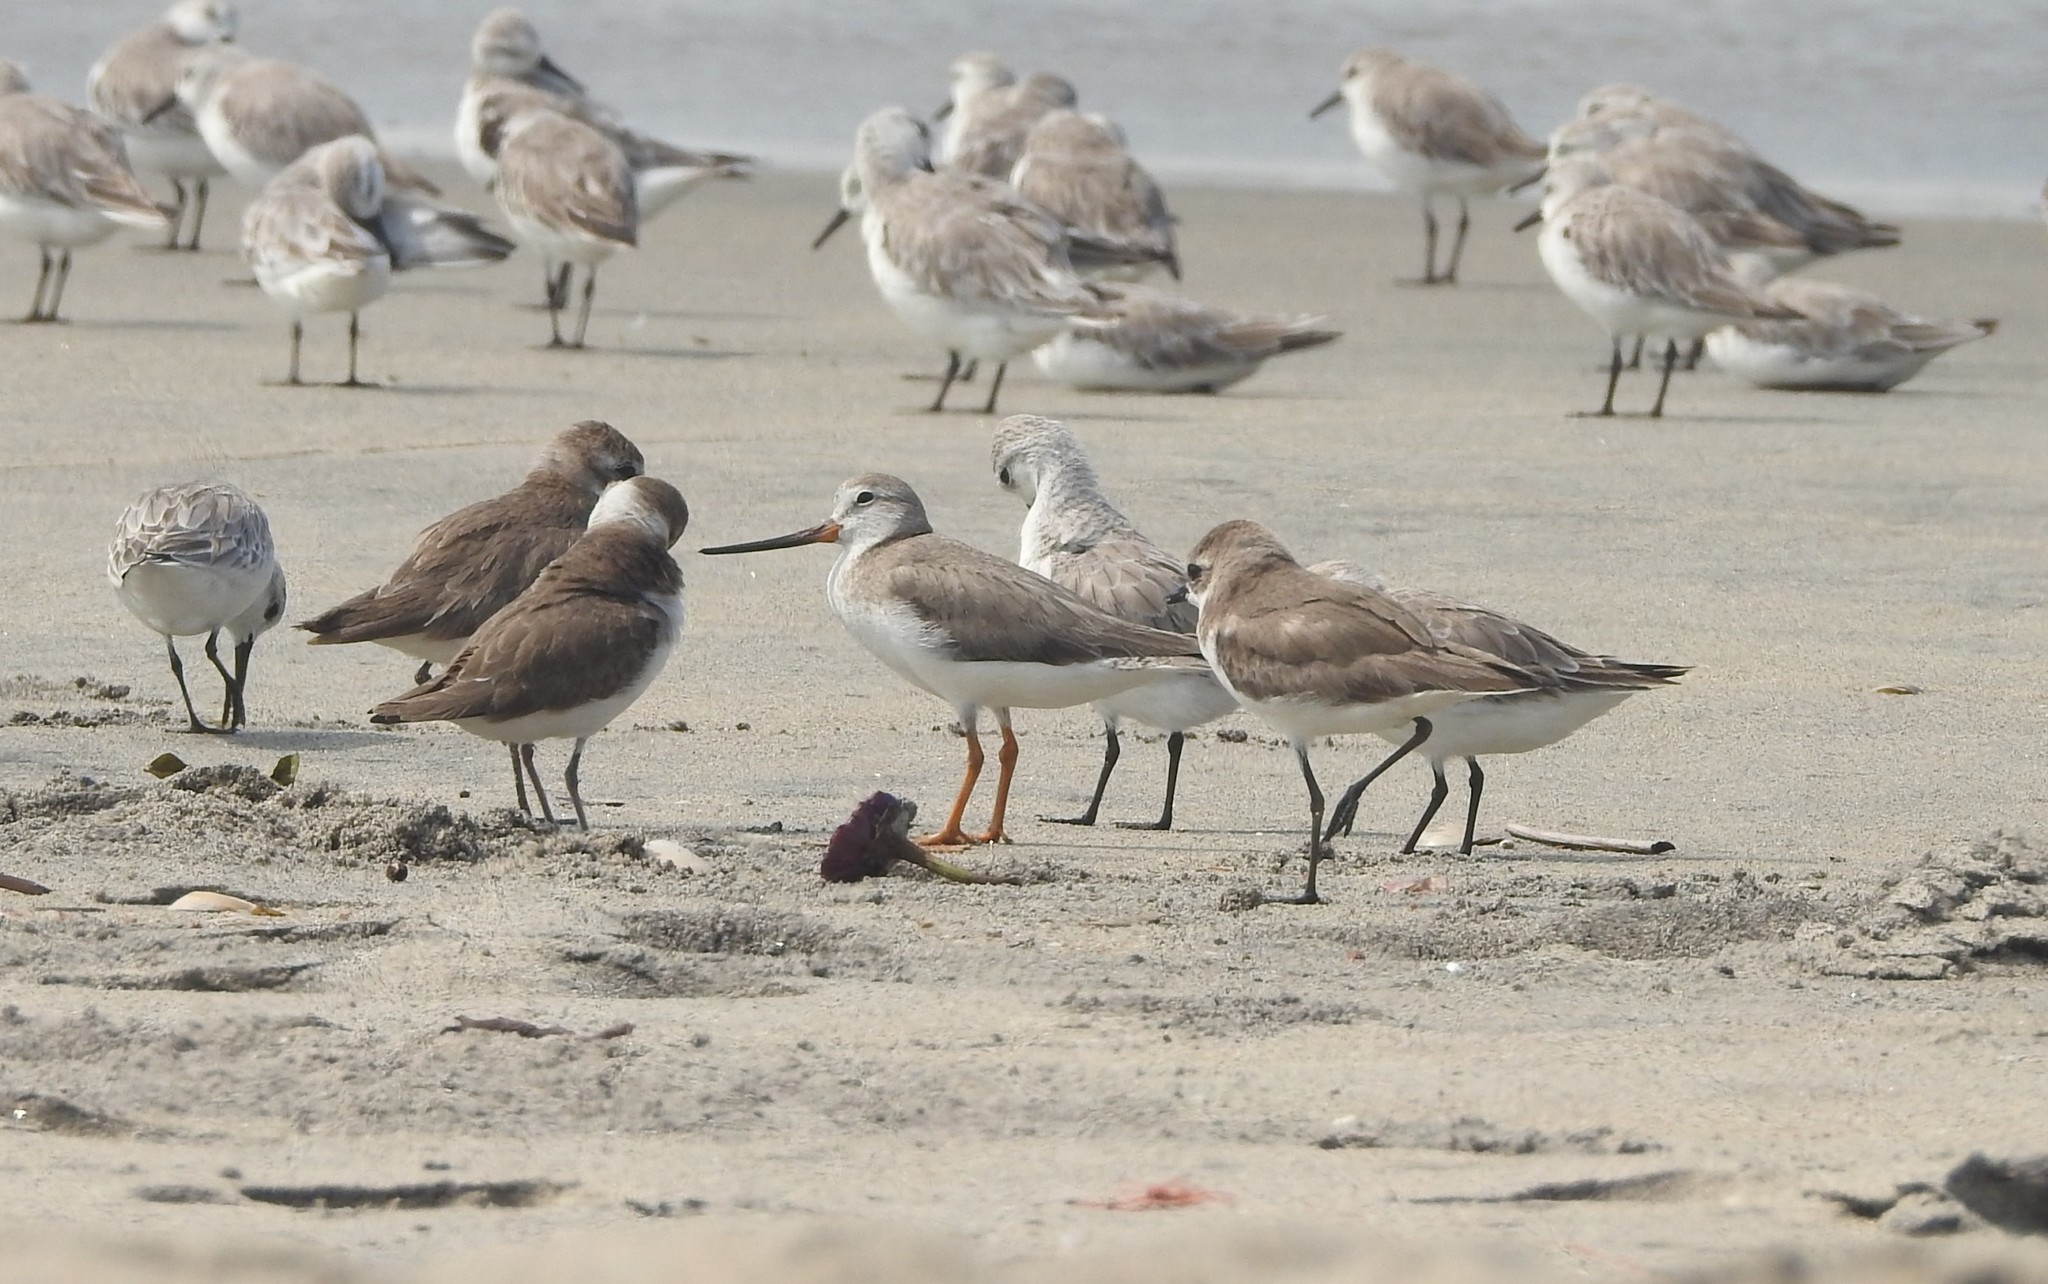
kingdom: Animalia
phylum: Chordata
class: Aves
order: Charadriiformes
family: Scolopacidae
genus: Xenus
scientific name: Xenus cinereus
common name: Terek sandpiper
